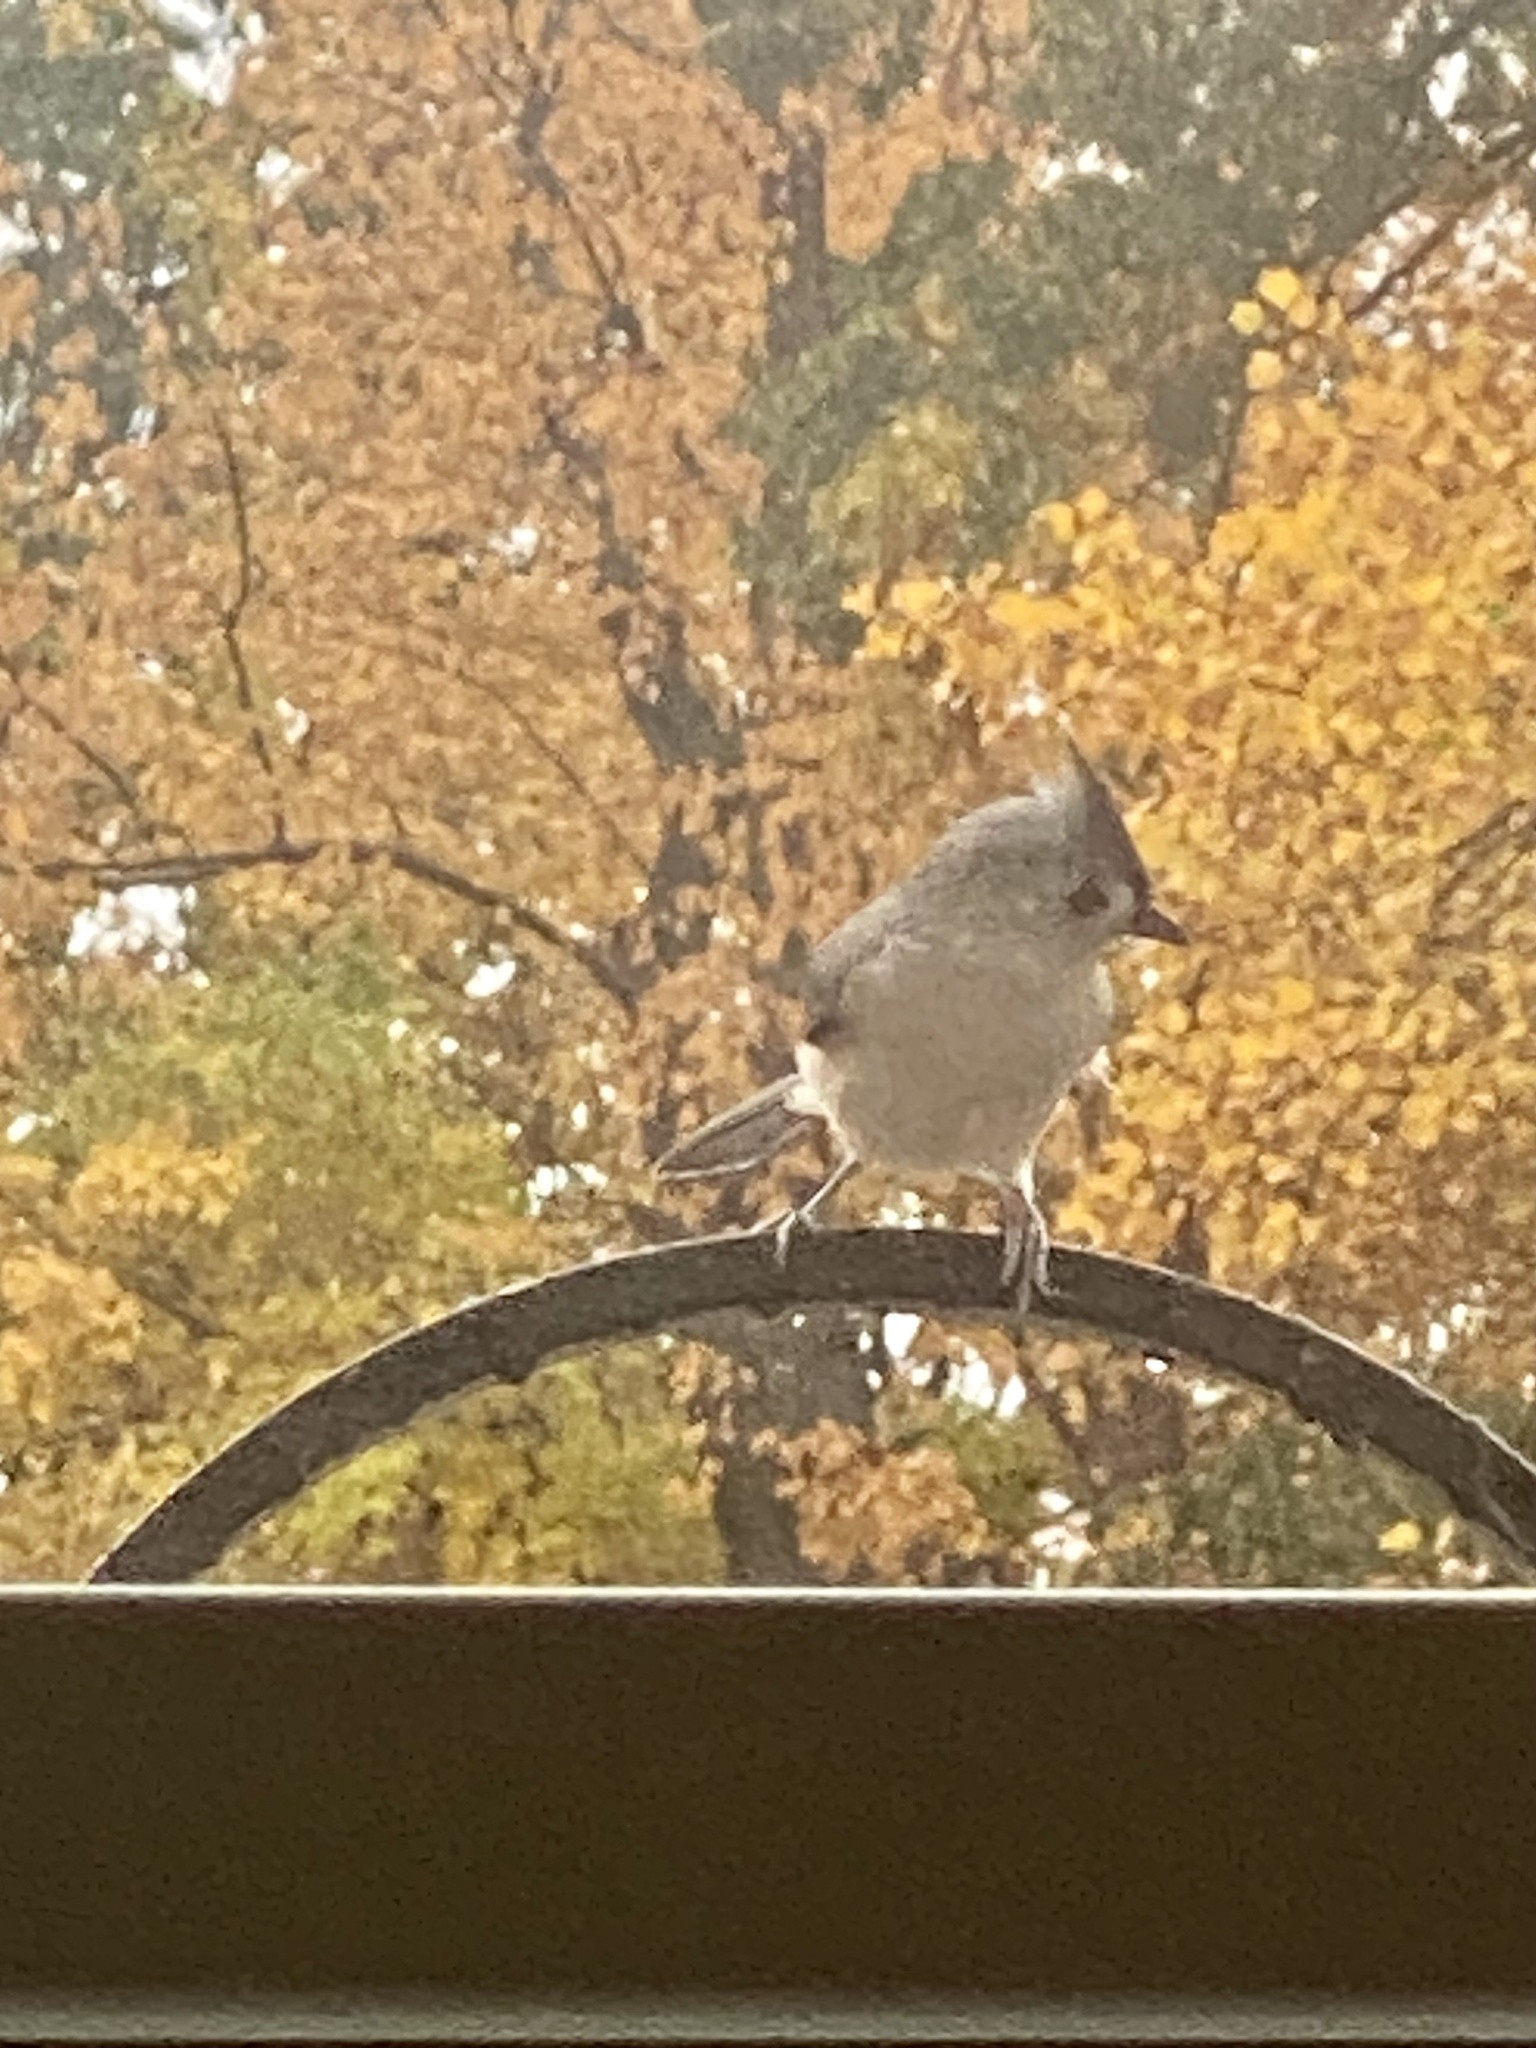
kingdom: Animalia
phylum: Chordata
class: Aves
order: Passeriformes
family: Paridae
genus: Baeolophus
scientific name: Baeolophus bicolor
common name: Tufted titmouse
